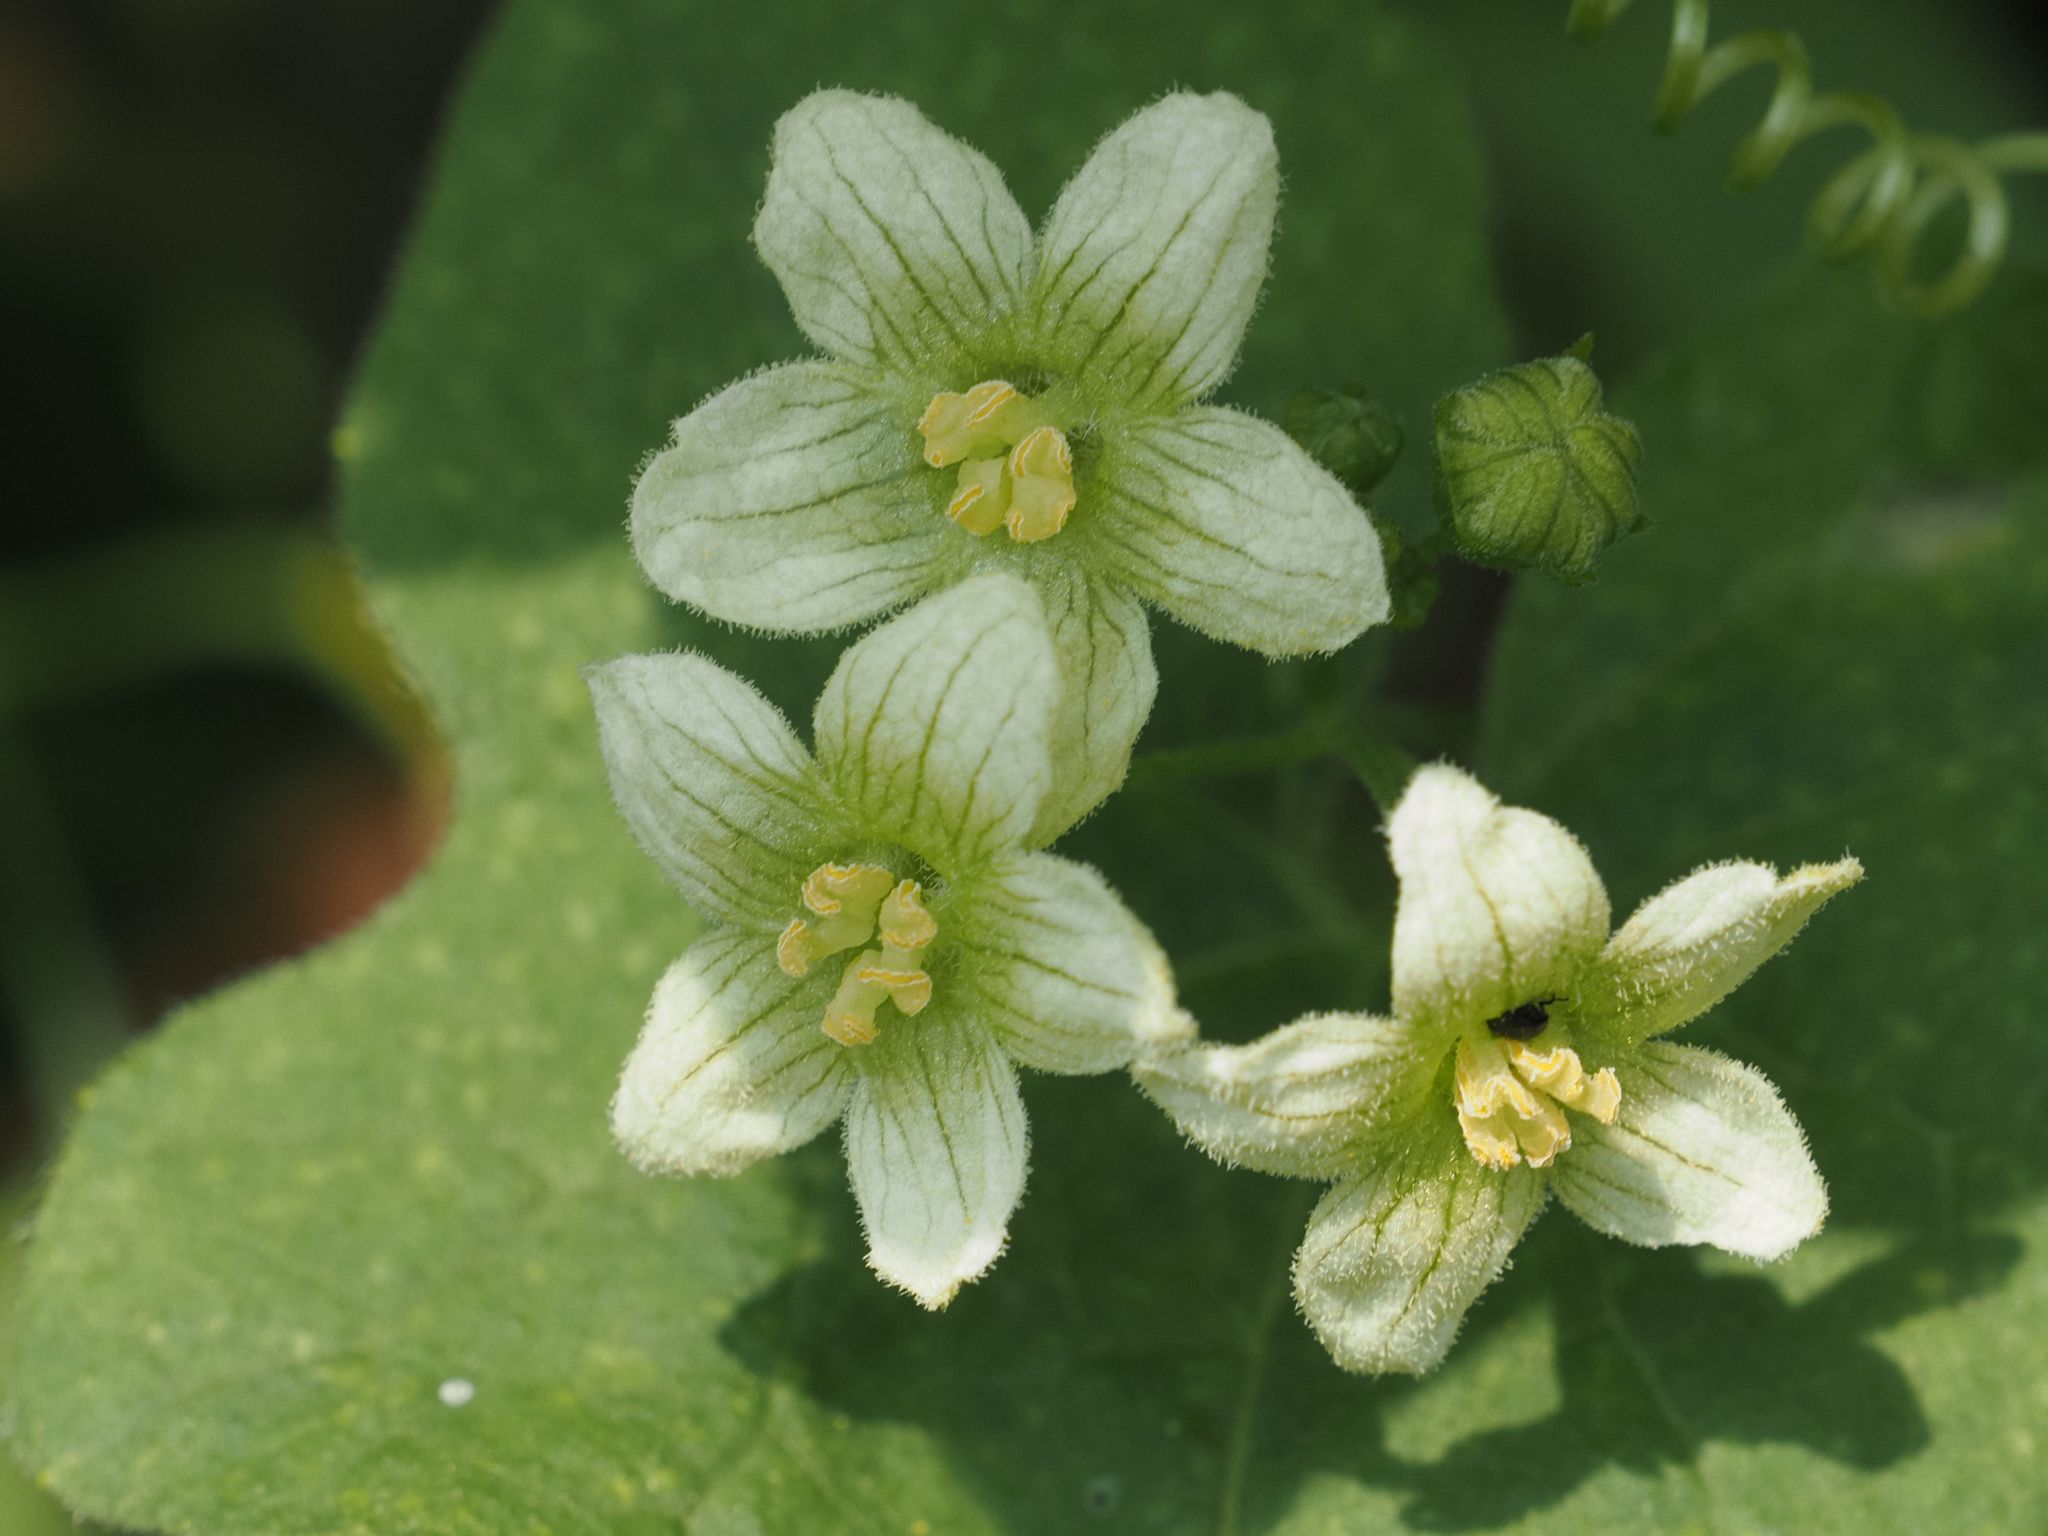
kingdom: Plantae
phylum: Tracheophyta
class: Magnoliopsida
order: Cucurbitales
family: Cucurbitaceae
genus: Bryonia
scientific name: Bryonia dioica
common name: White bryony
